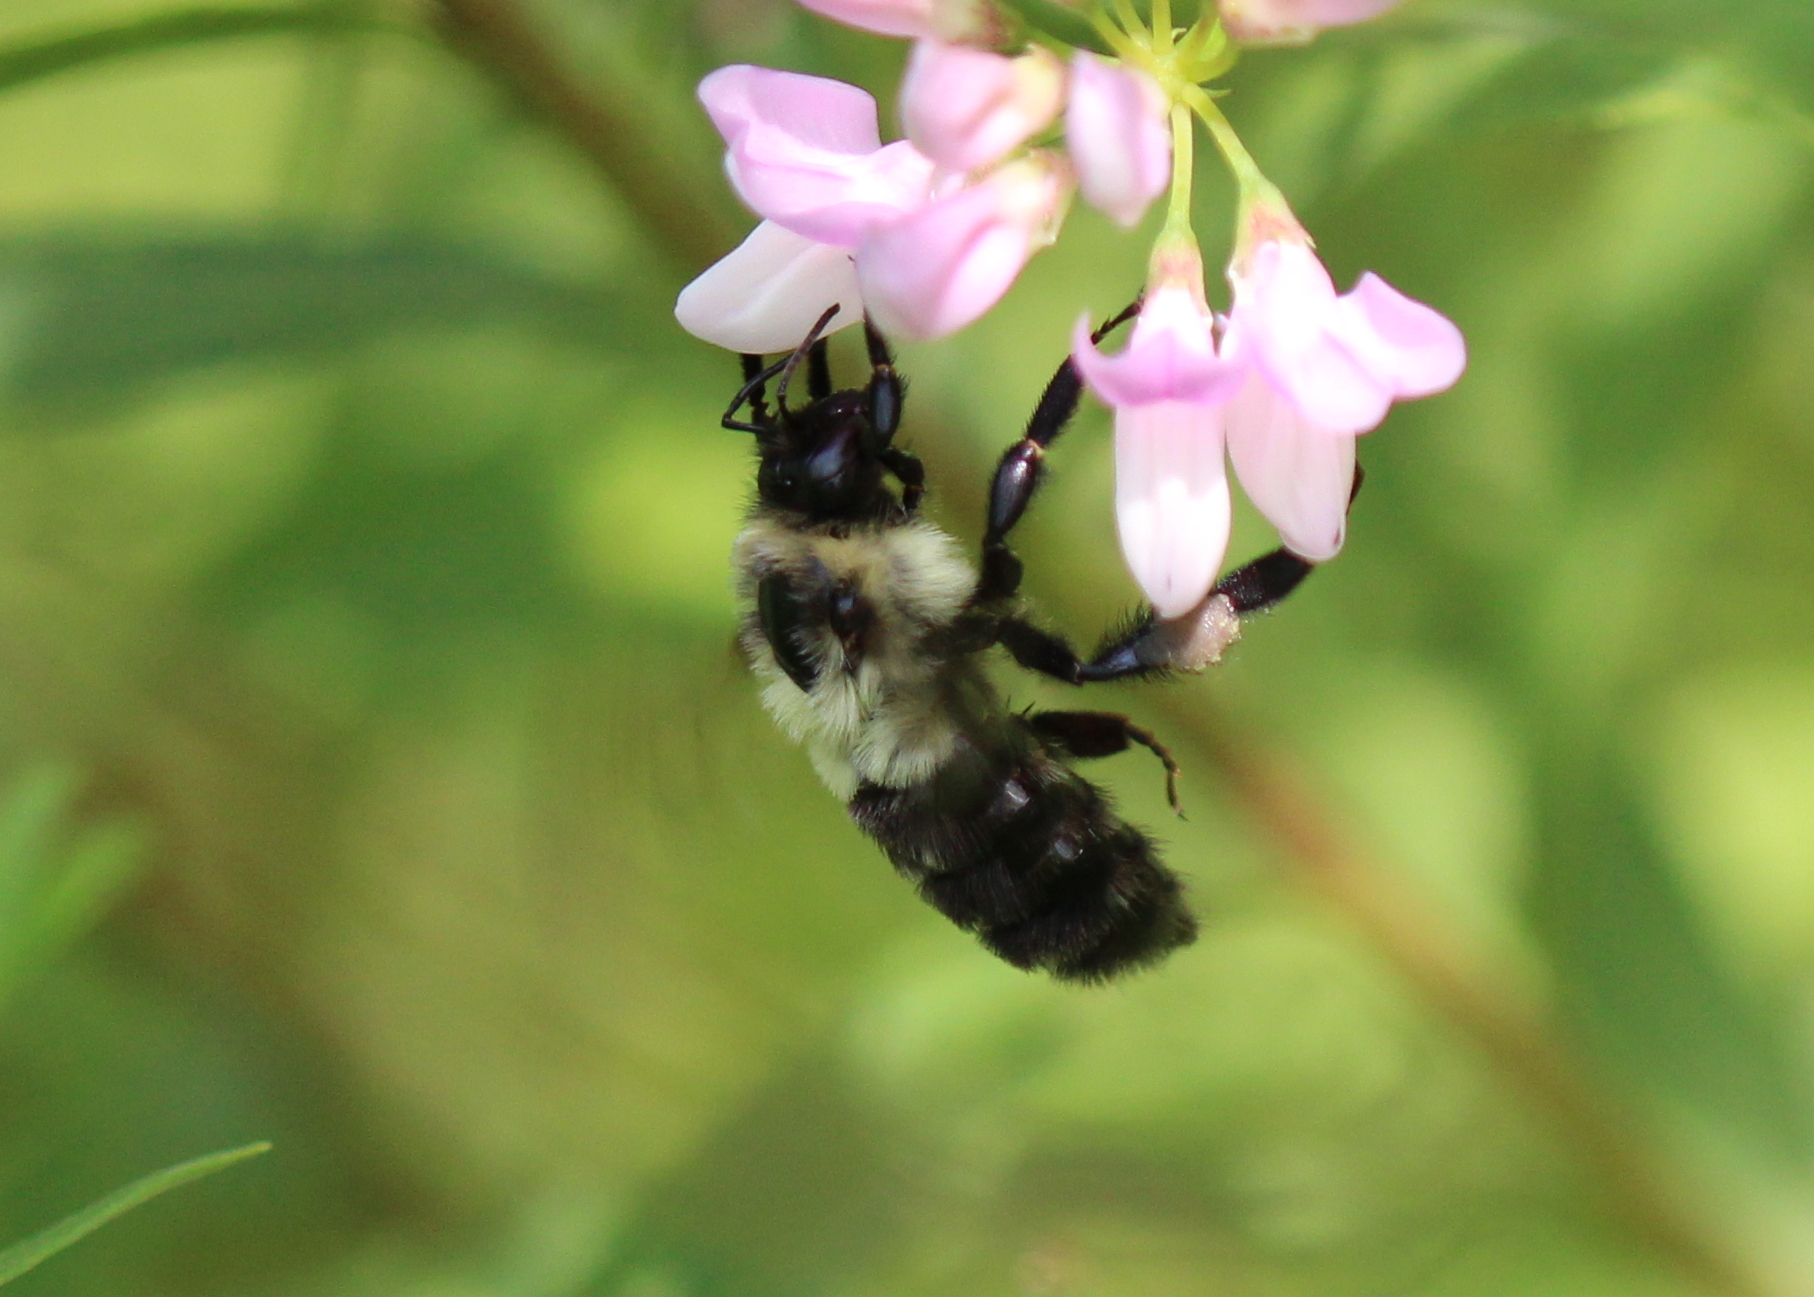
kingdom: Animalia
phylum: Arthropoda
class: Insecta
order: Hymenoptera
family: Apidae
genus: Bombus
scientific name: Bombus impatiens
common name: Common eastern bumble bee
